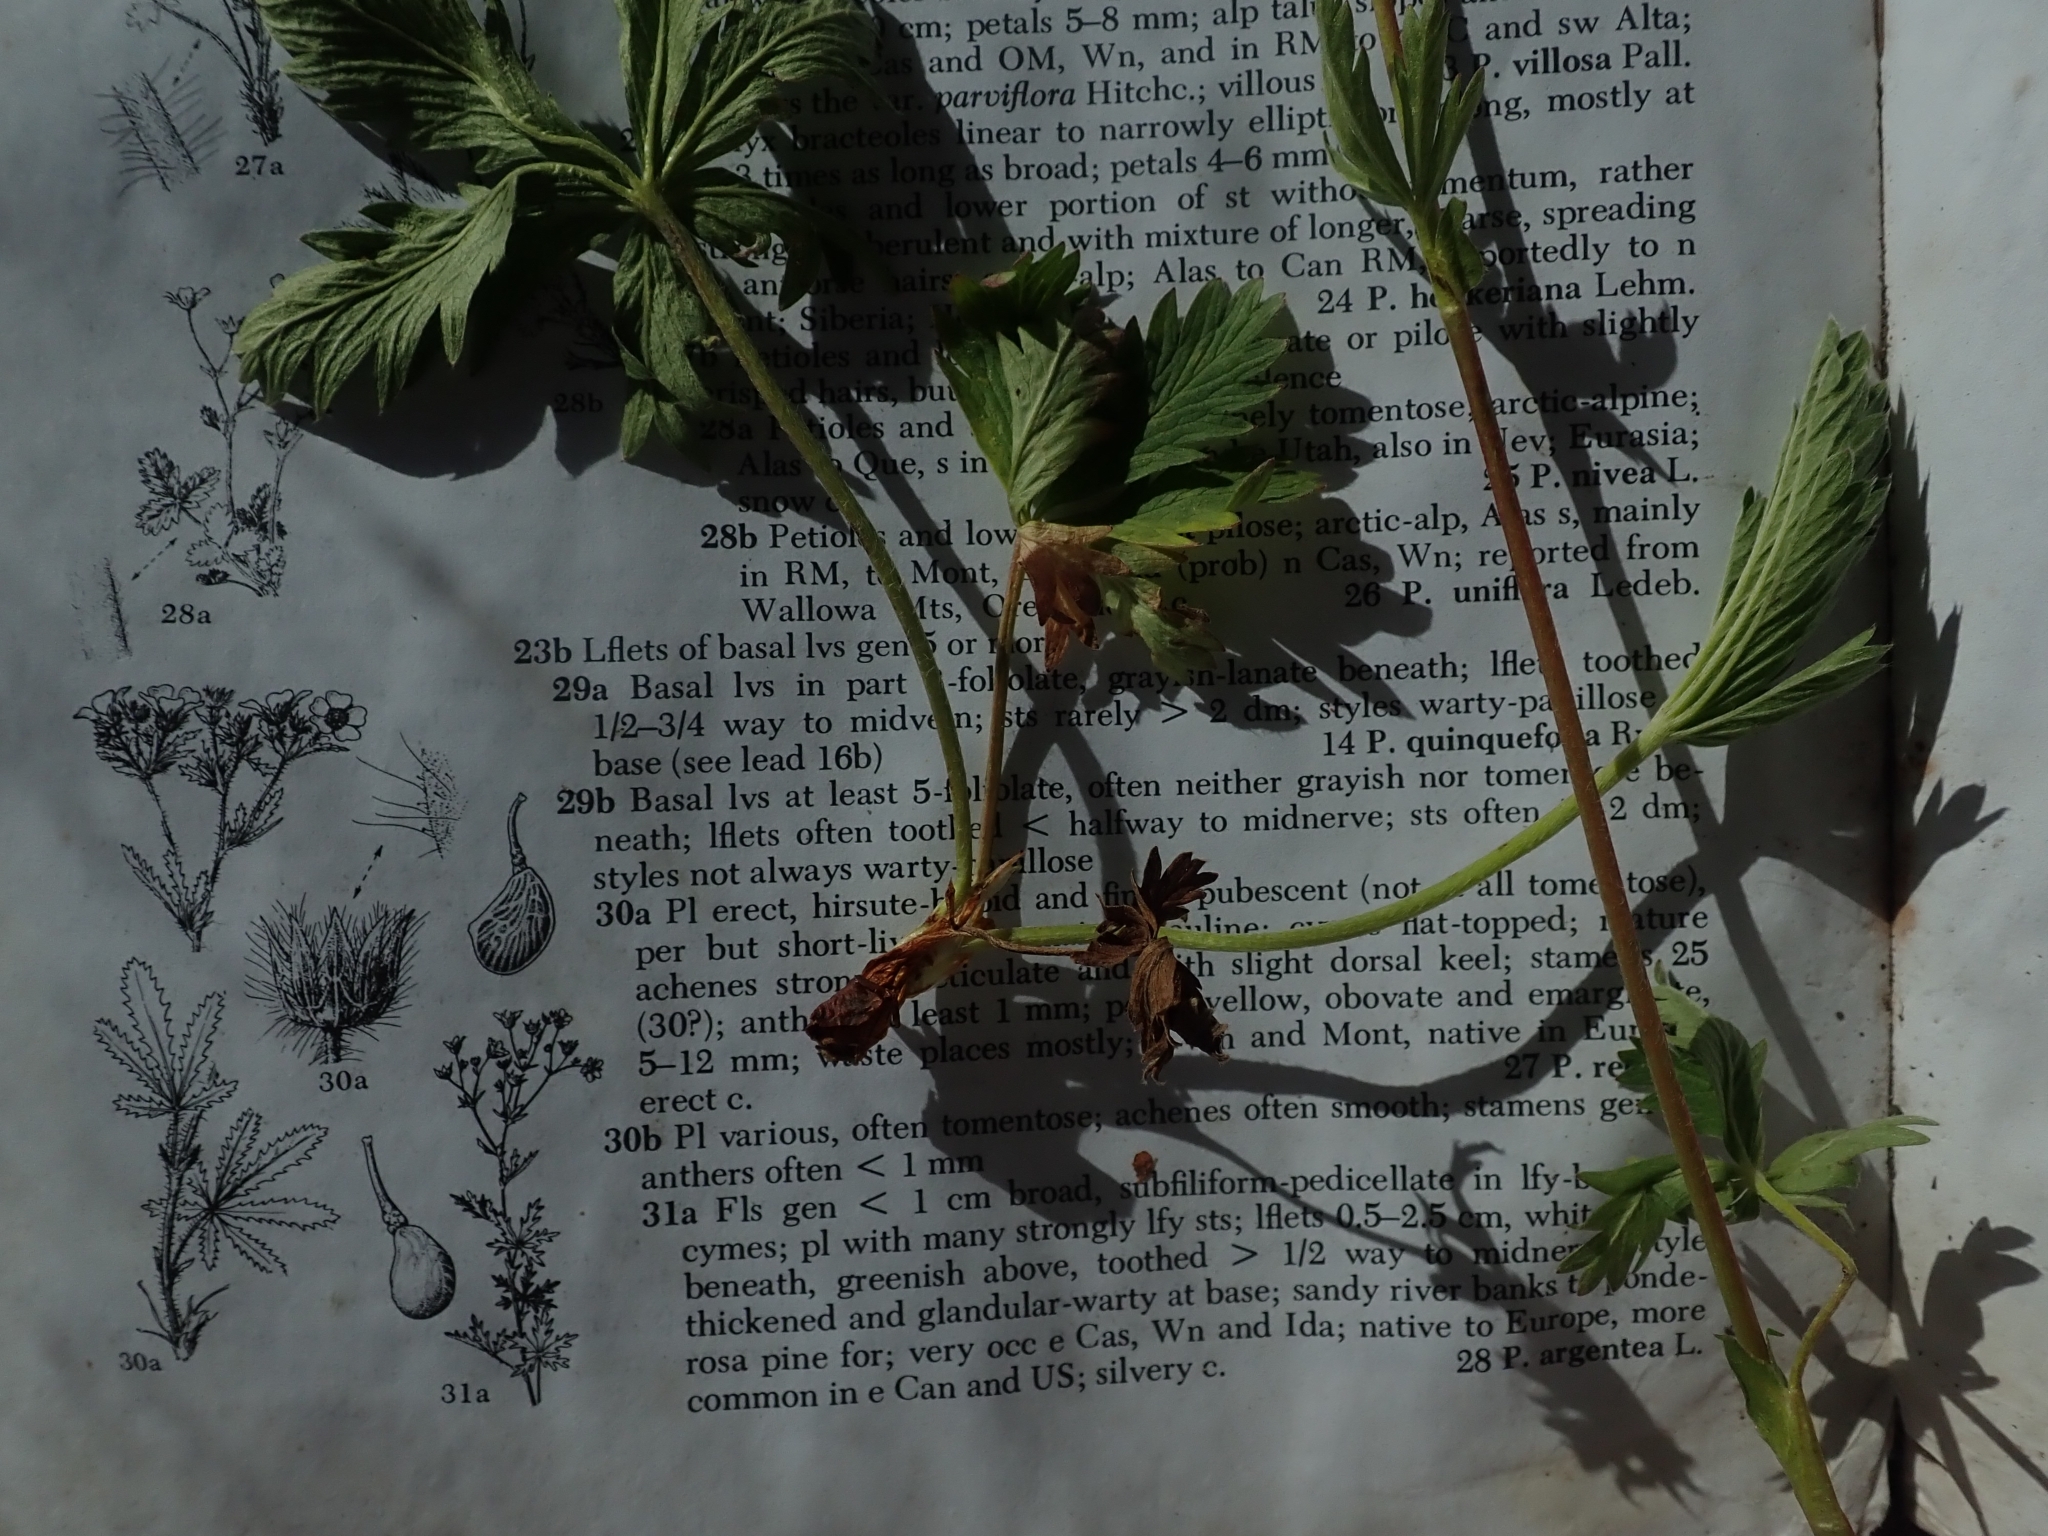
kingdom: Plantae
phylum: Tracheophyta
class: Magnoliopsida
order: Rosales
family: Rosaceae
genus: Potentilla
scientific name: Potentilla gracilis
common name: Graceful cinquefoil
